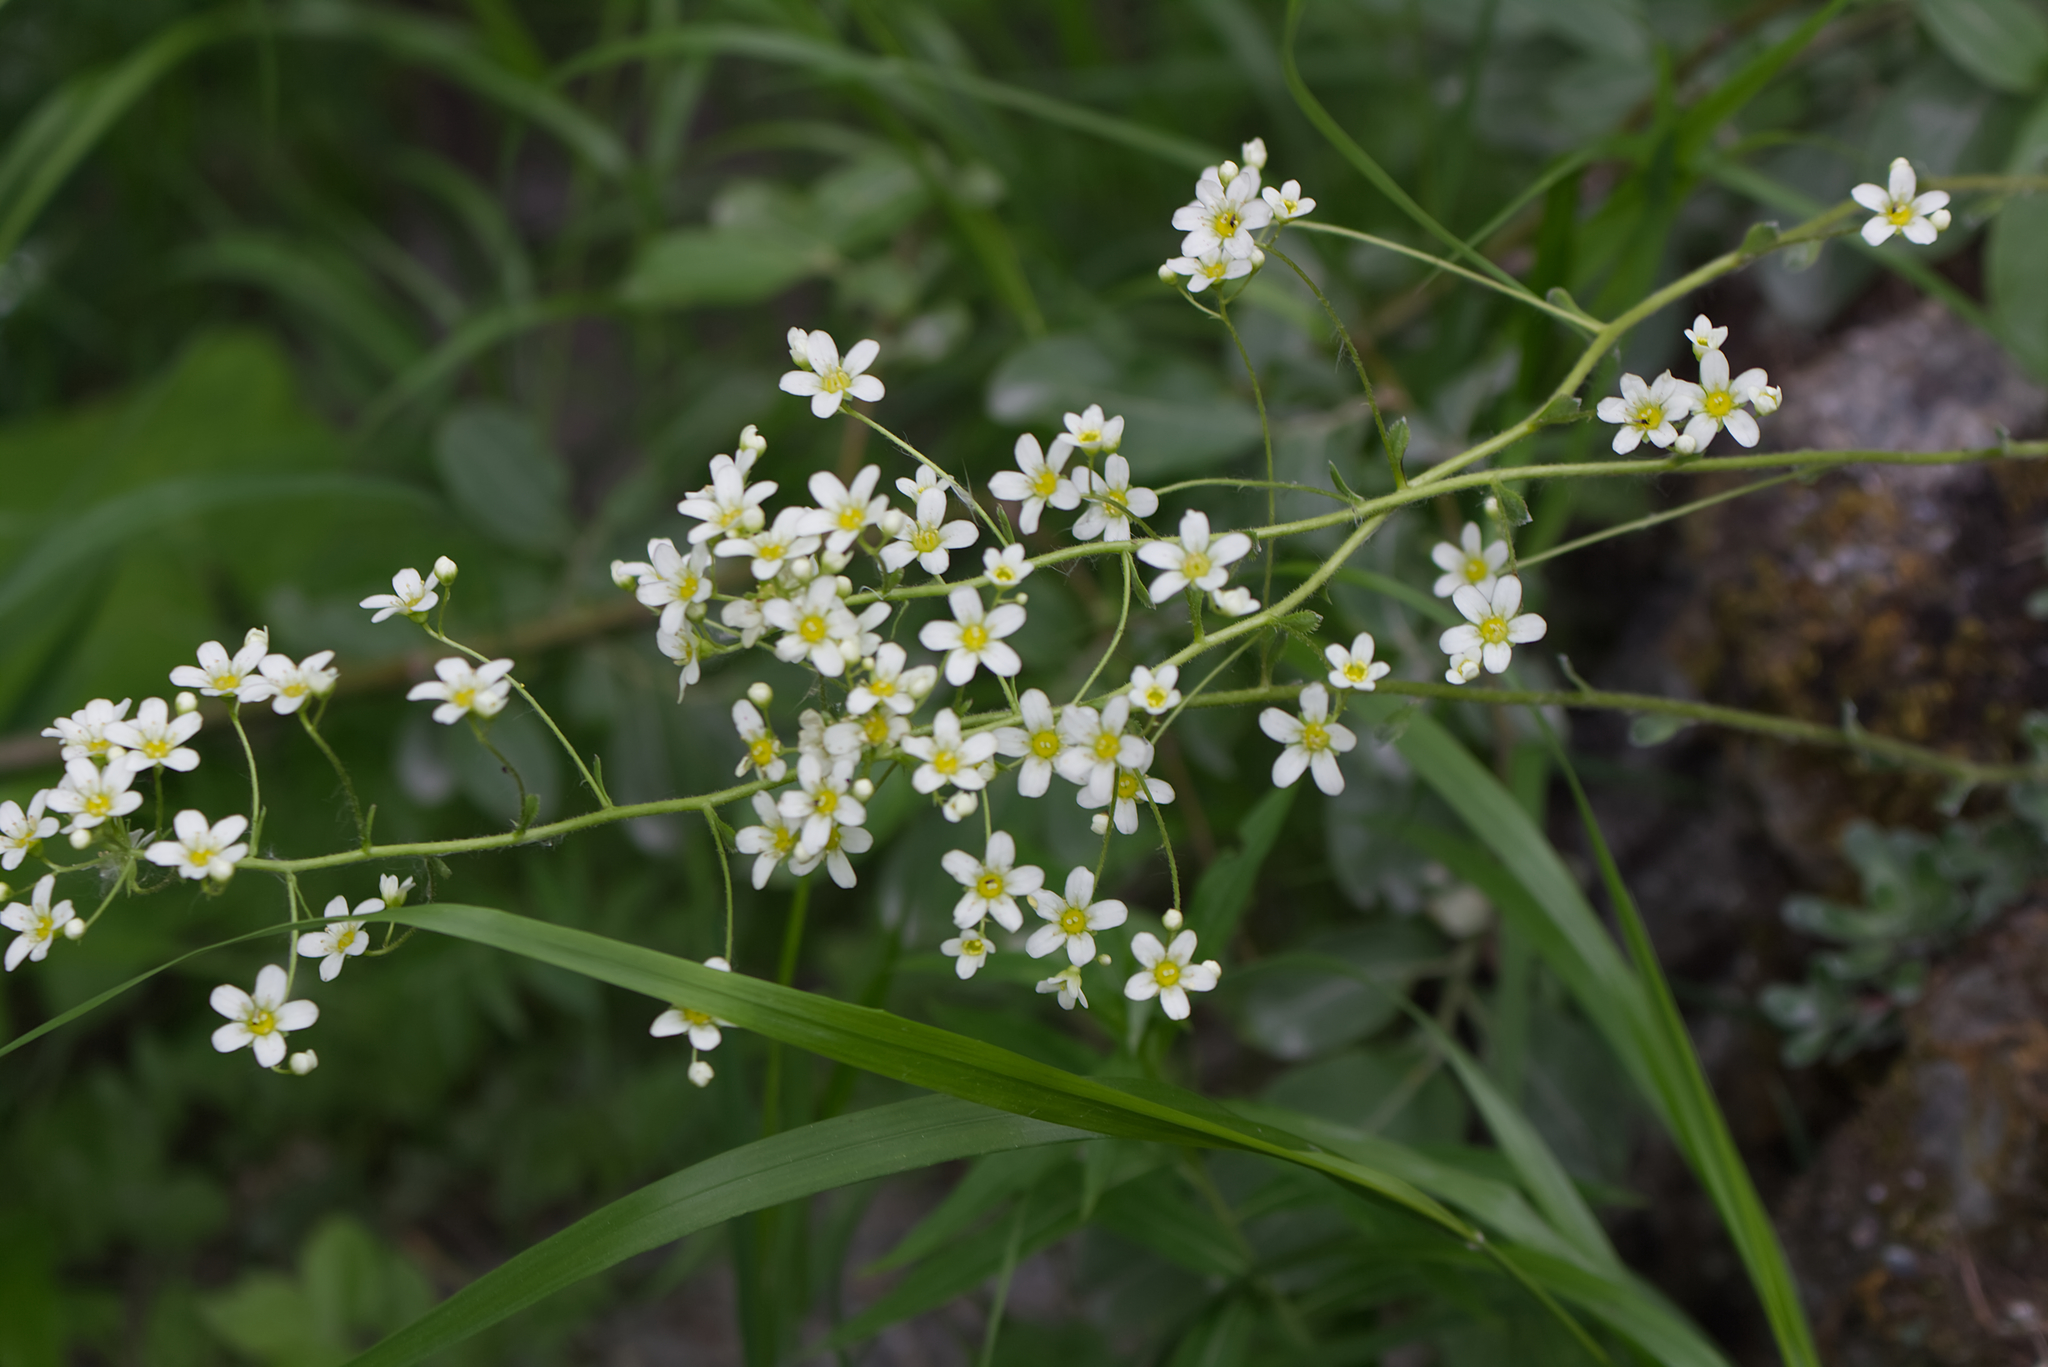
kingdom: Plantae
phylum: Tracheophyta
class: Magnoliopsida
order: Saxifragales
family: Saxifragaceae
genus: Saxifraga
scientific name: Saxifraga paniculata
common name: Livelong saxifrage
